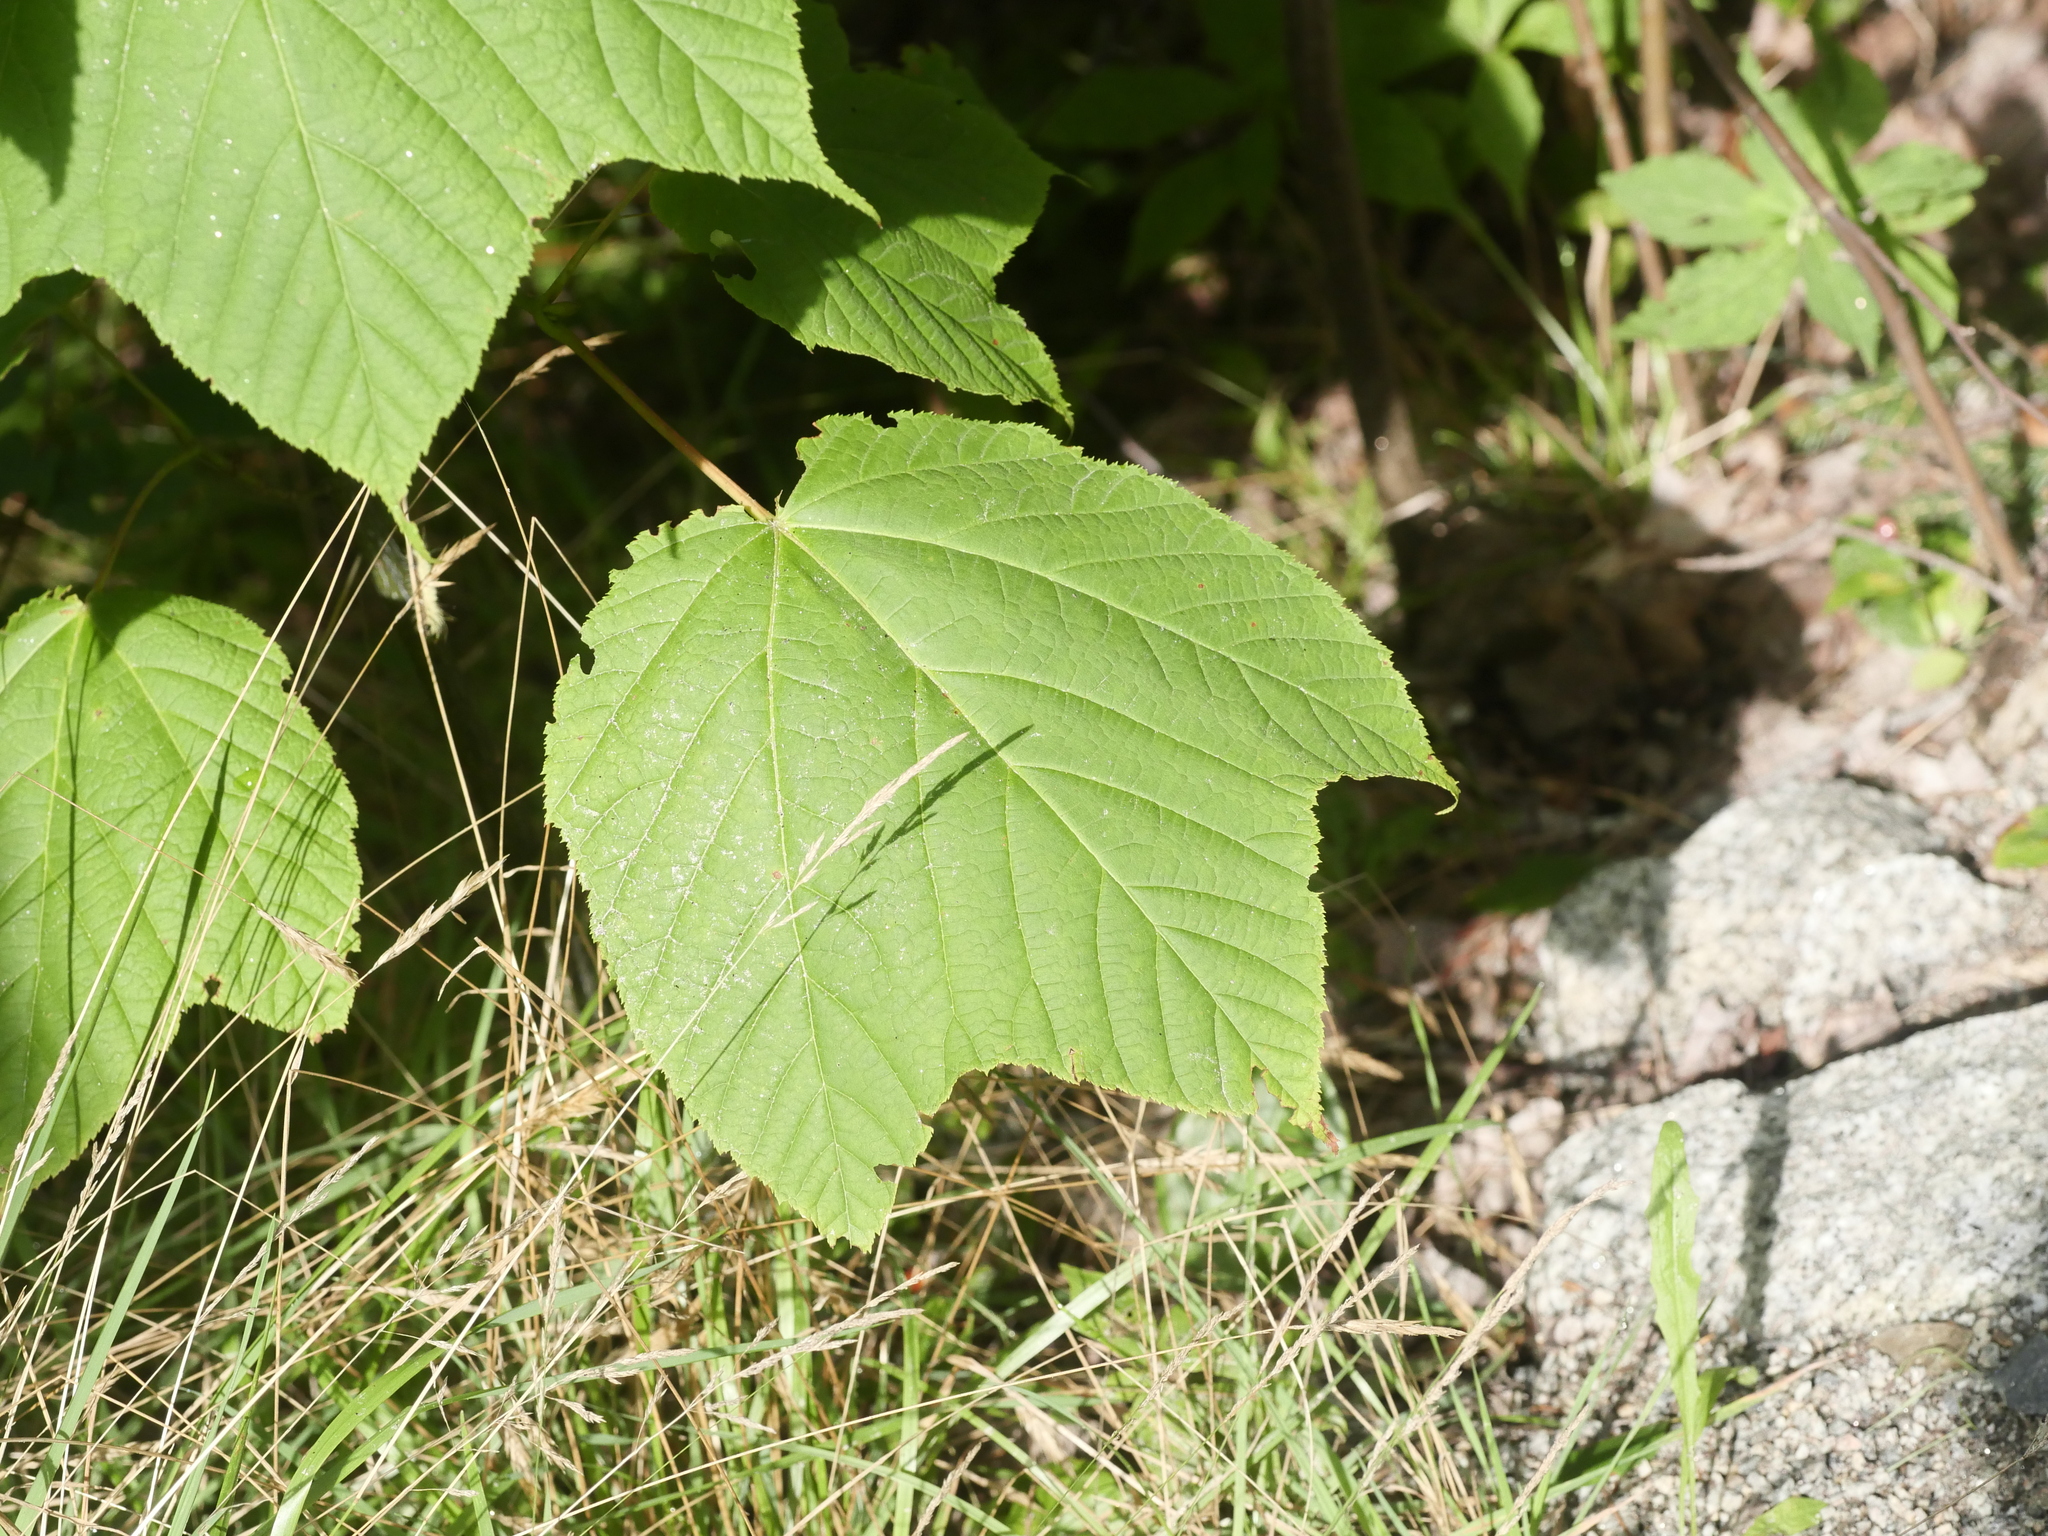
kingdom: Plantae
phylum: Tracheophyta
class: Magnoliopsida
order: Sapindales
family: Sapindaceae
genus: Acer
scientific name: Acer pensylvanicum
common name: Moosewood
